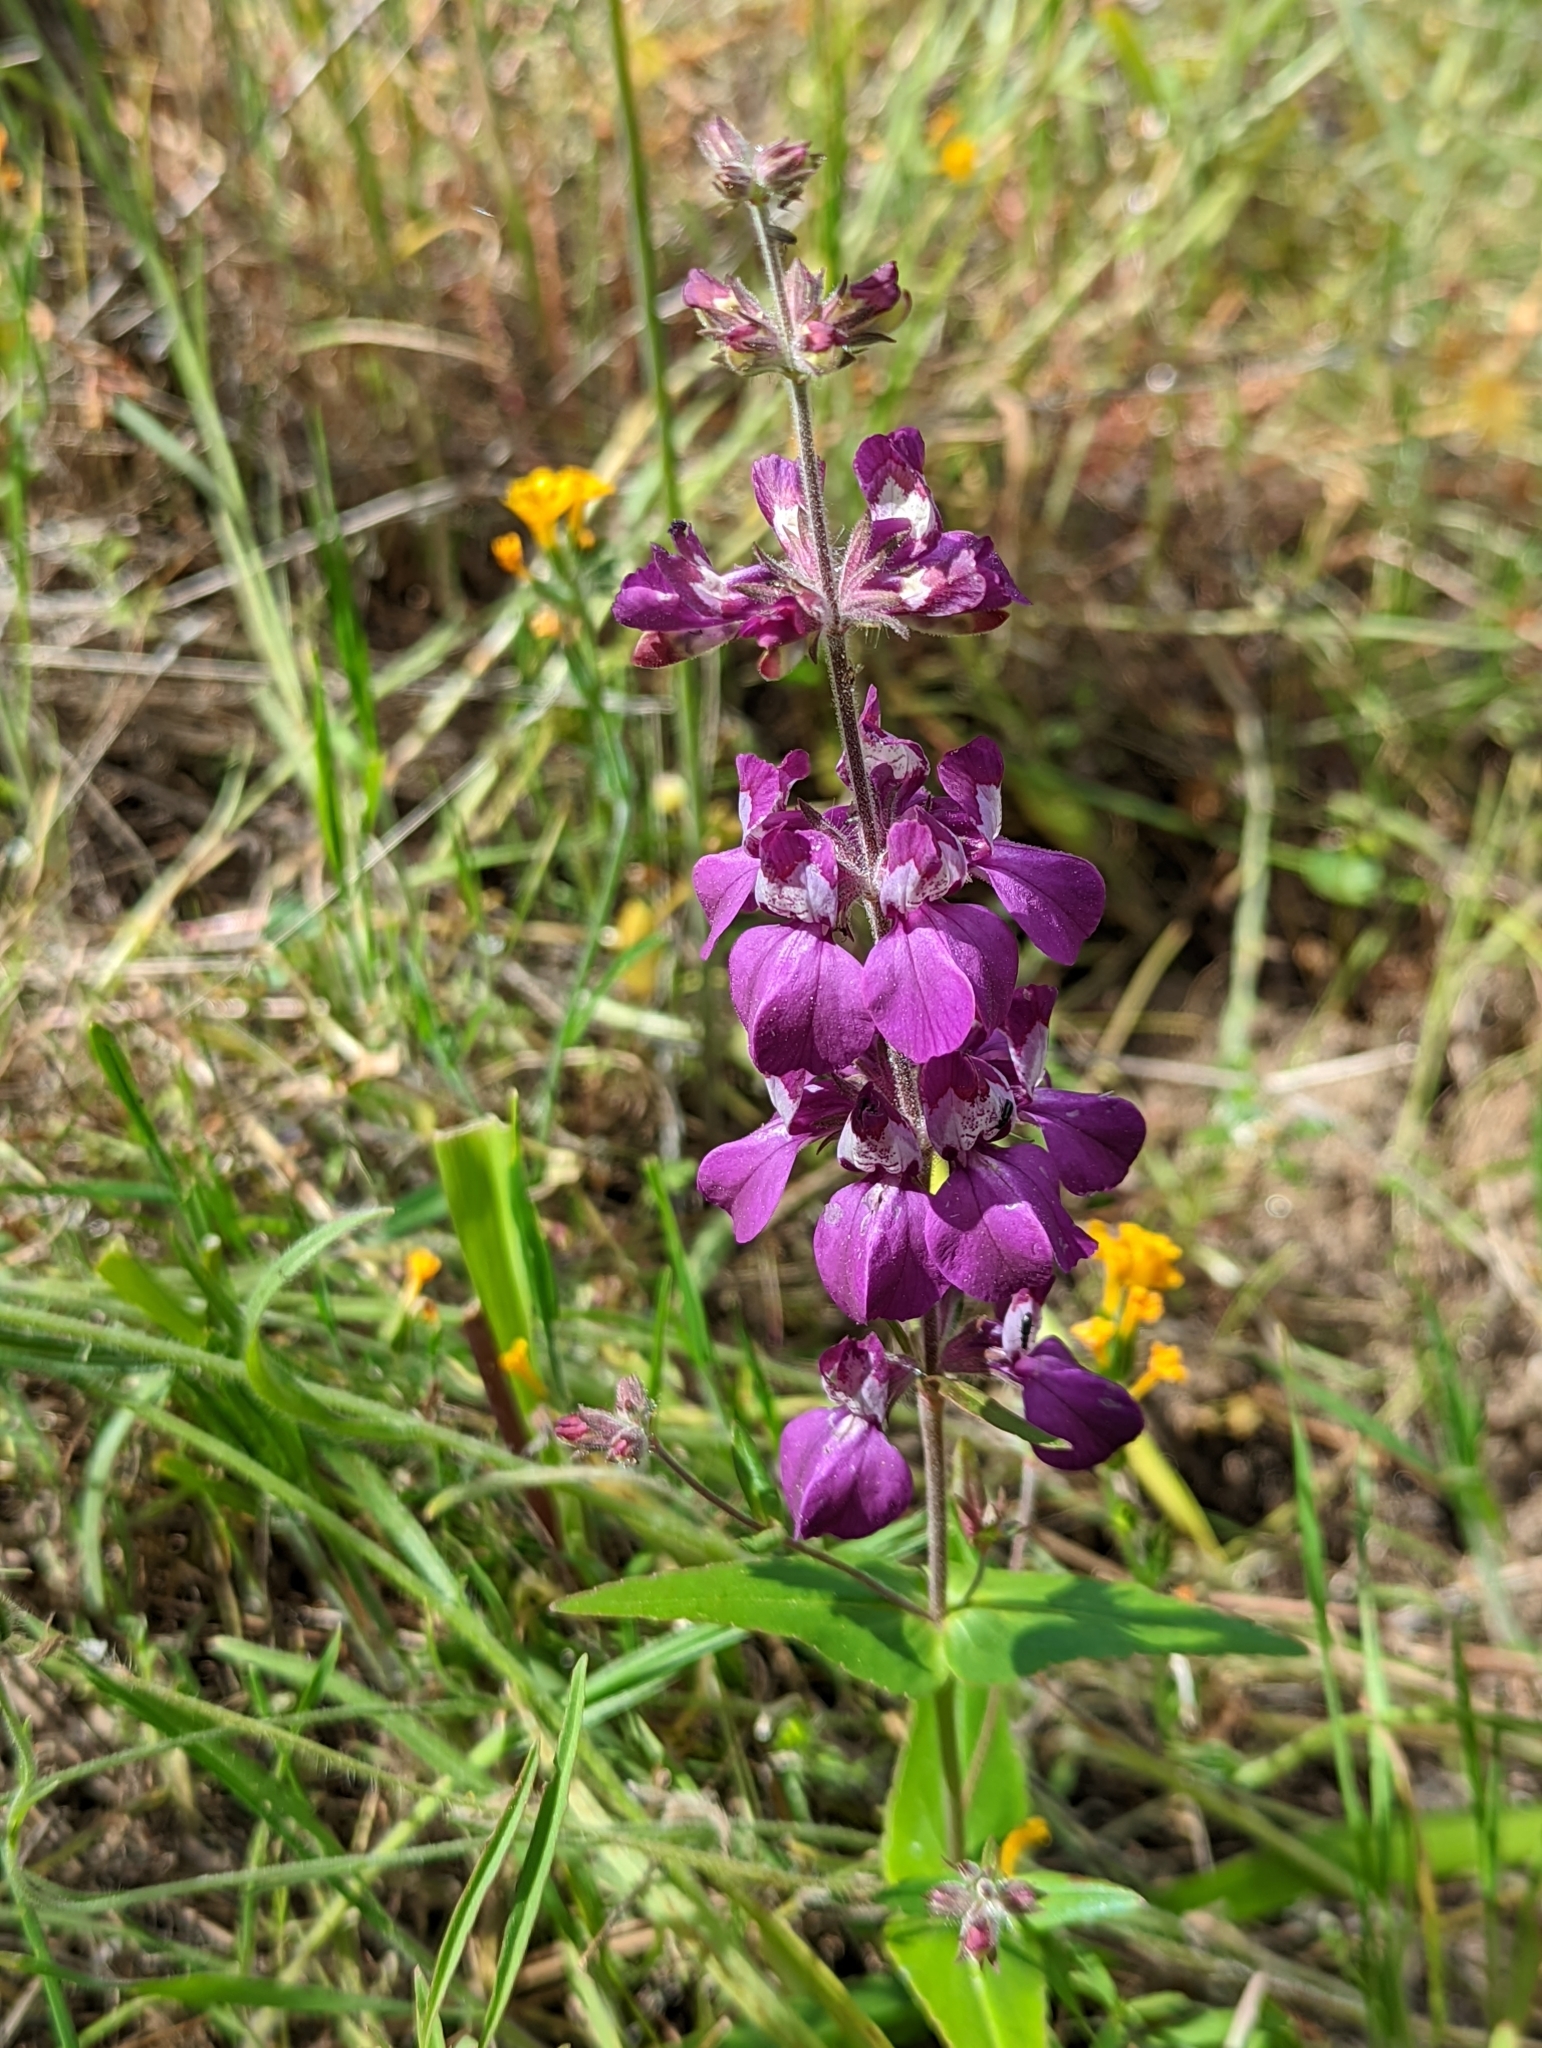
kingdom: Plantae
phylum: Tracheophyta
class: Magnoliopsida
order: Lamiales
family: Plantaginaceae
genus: Collinsia
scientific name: Collinsia heterophylla
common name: Chinese-houses
